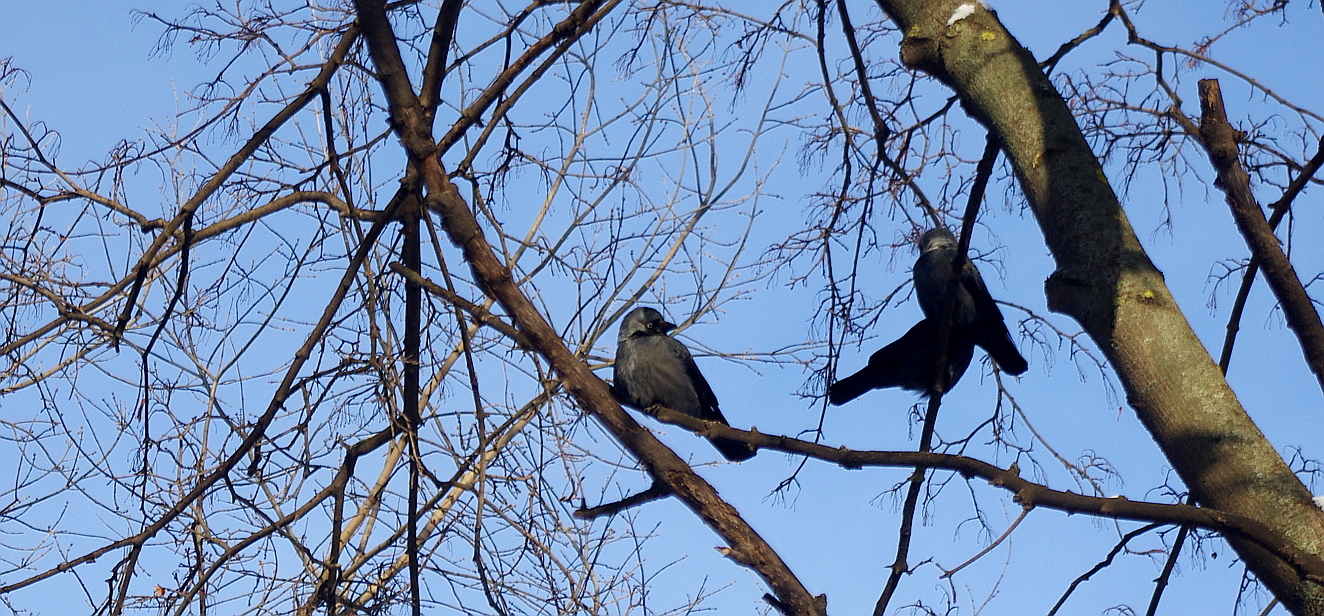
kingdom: Animalia
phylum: Chordata
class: Aves
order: Passeriformes
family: Corvidae
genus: Coloeus
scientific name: Coloeus monedula
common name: Western jackdaw
